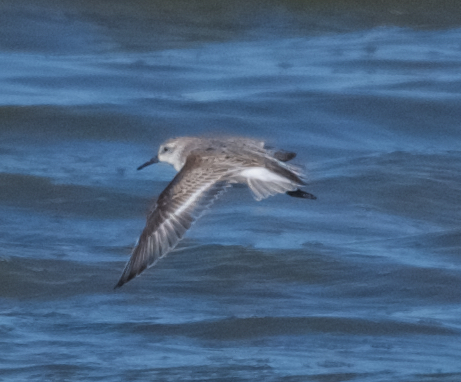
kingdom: Animalia
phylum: Chordata
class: Aves
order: Charadriiformes
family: Scolopacidae
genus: Calidris
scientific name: Calidris mauri
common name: Western sandpiper
